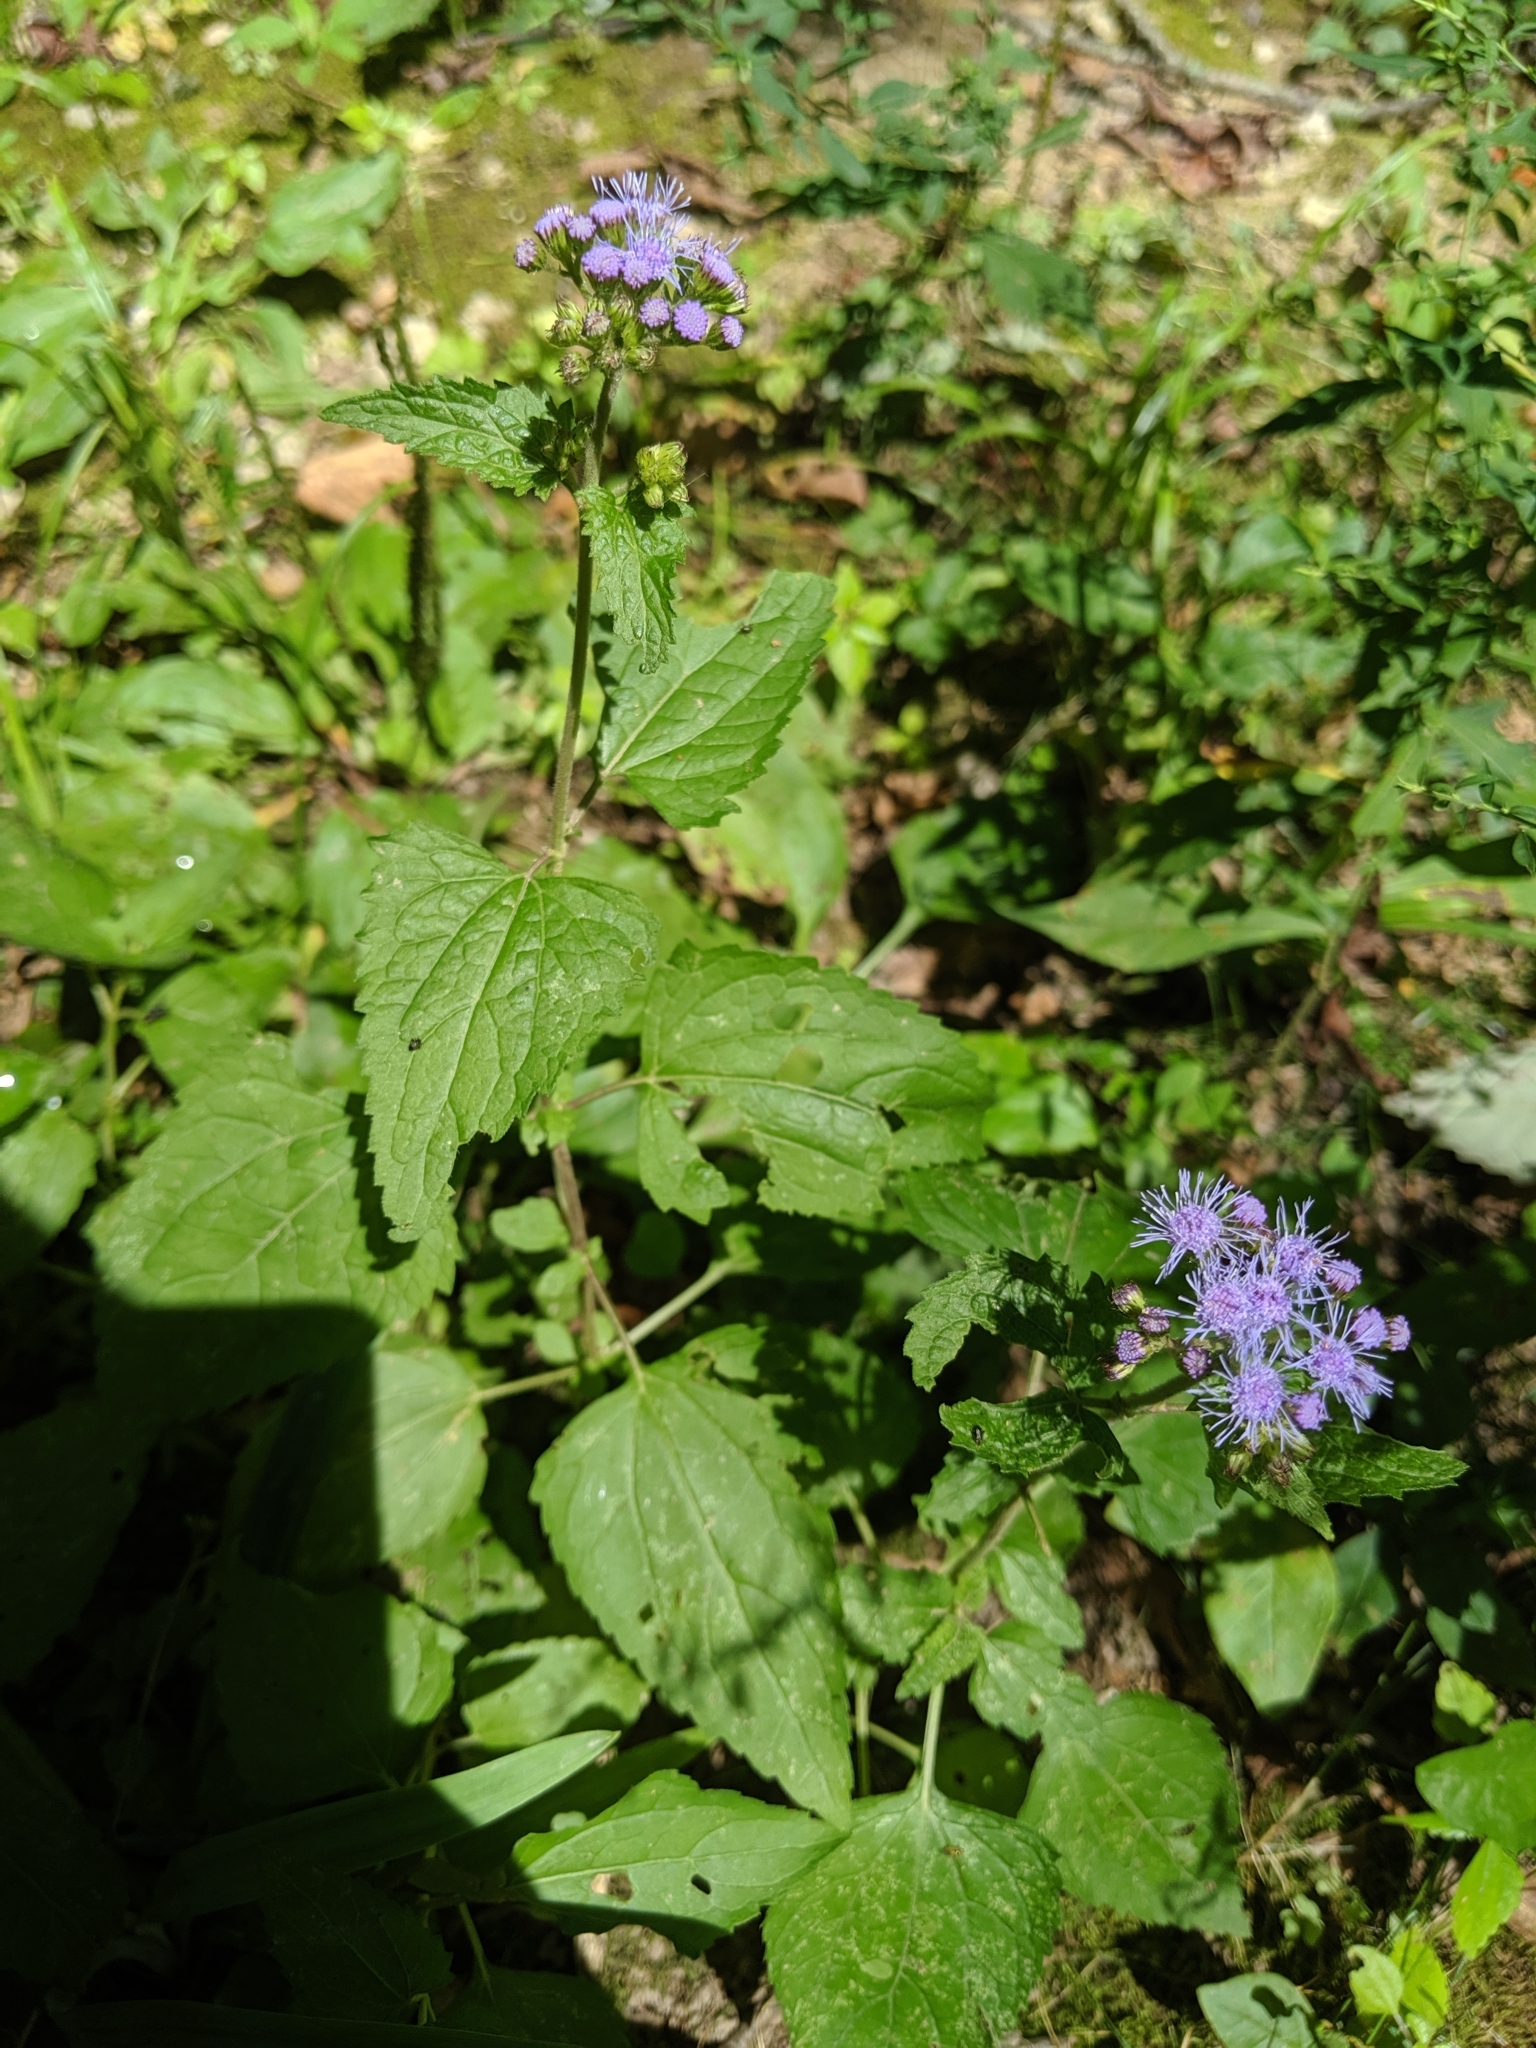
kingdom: Plantae
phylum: Tracheophyta
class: Magnoliopsida
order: Asterales
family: Asteraceae
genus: Conoclinium
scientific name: Conoclinium coelestinum
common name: Blue mistflower
